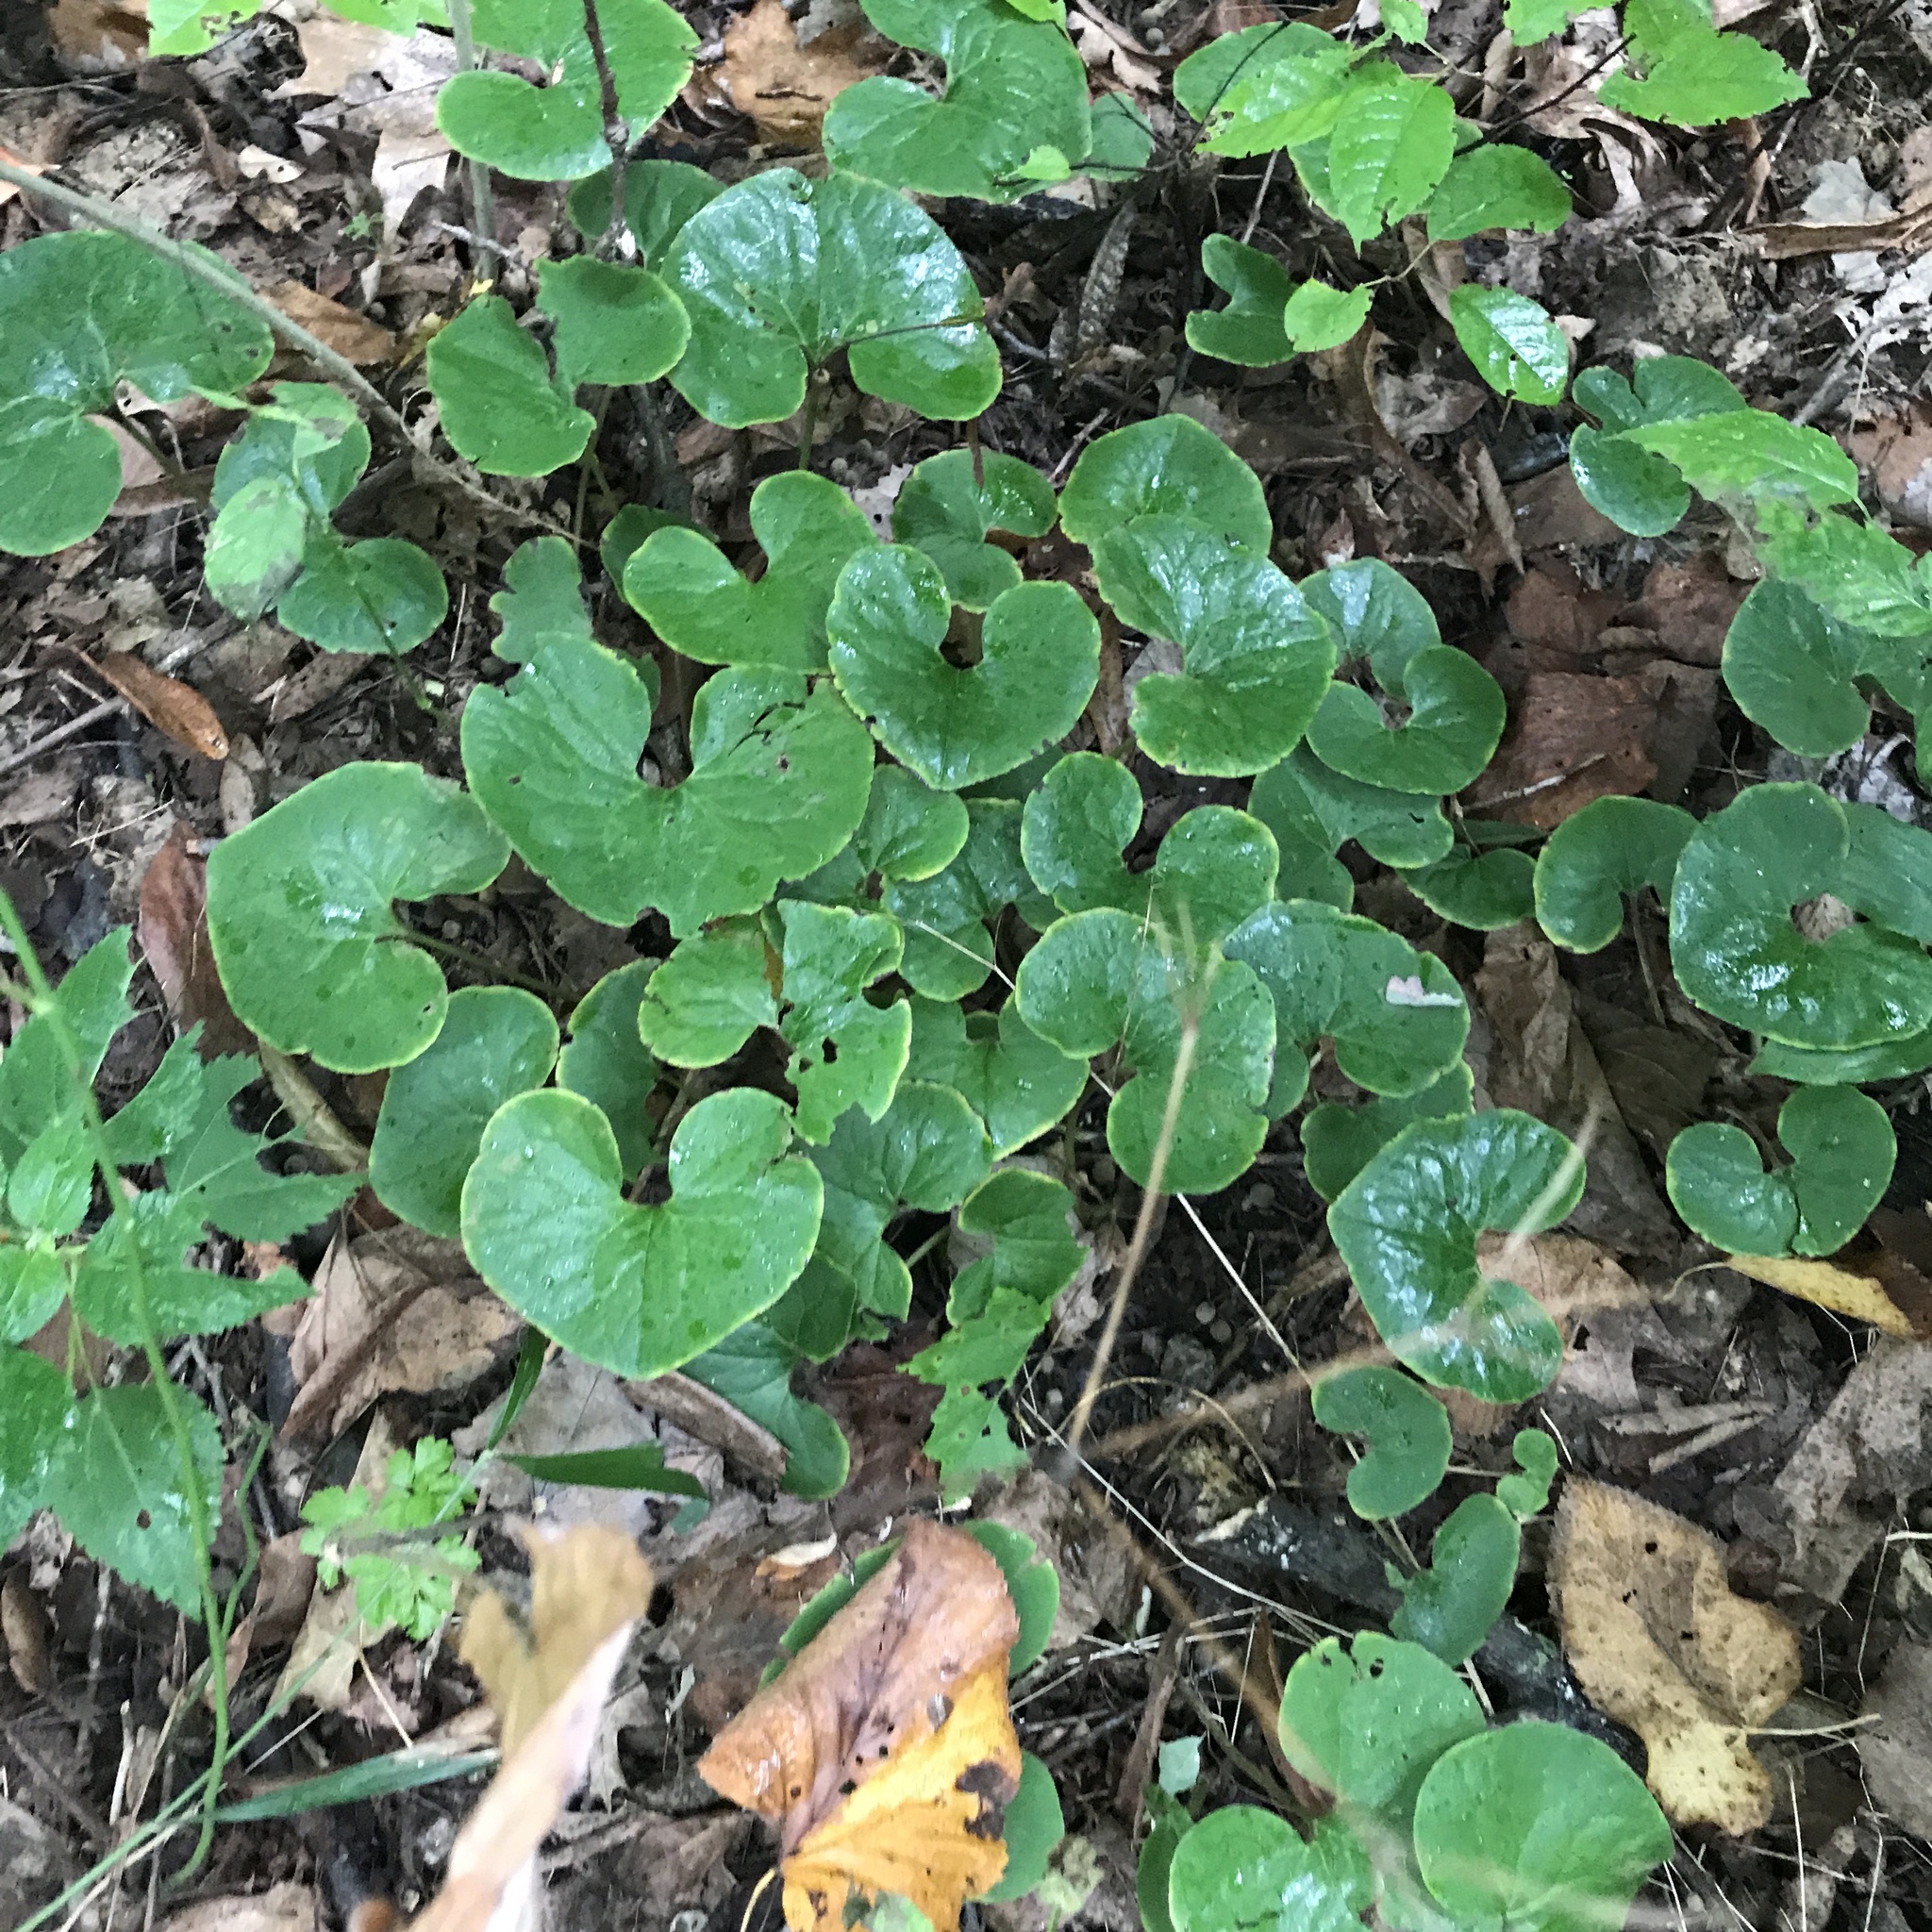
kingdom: Plantae
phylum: Tracheophyta
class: Magnoliopsida
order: Piperales
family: Aristolochiaceae
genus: Asarum
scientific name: Asarum canadense
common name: Wild ginger
